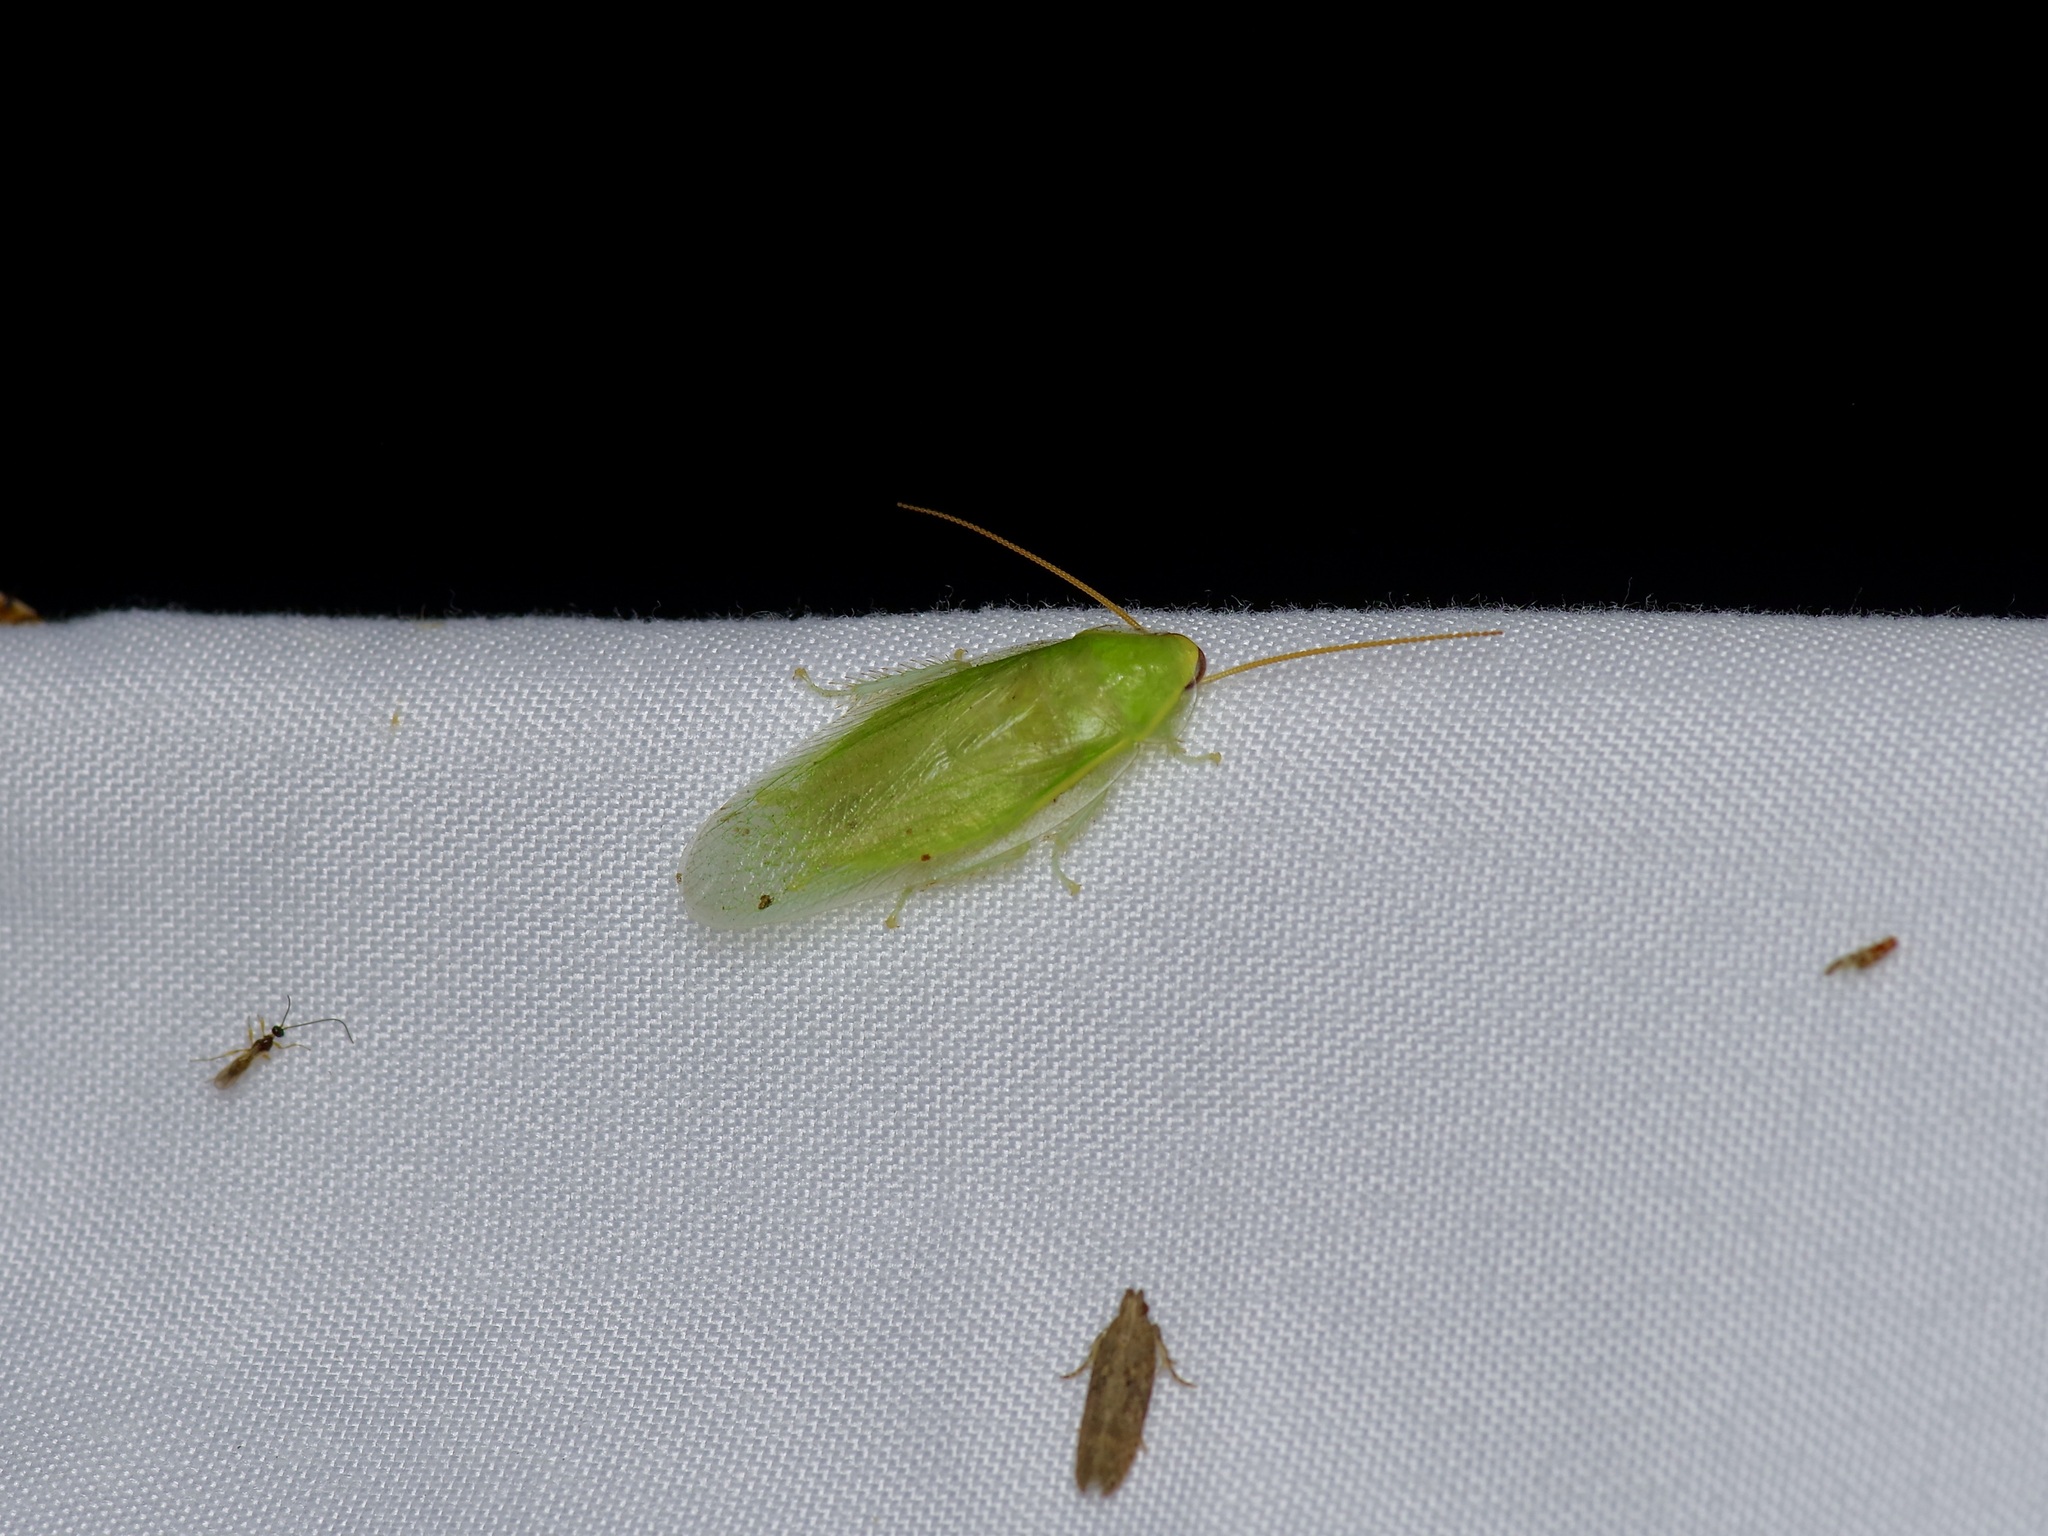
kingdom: Animalia
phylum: Arthropoda
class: Insecta
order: Blattodea
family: Blaberidae
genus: Panchlora
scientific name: Panchlora nivea
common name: Cuban cockroach
